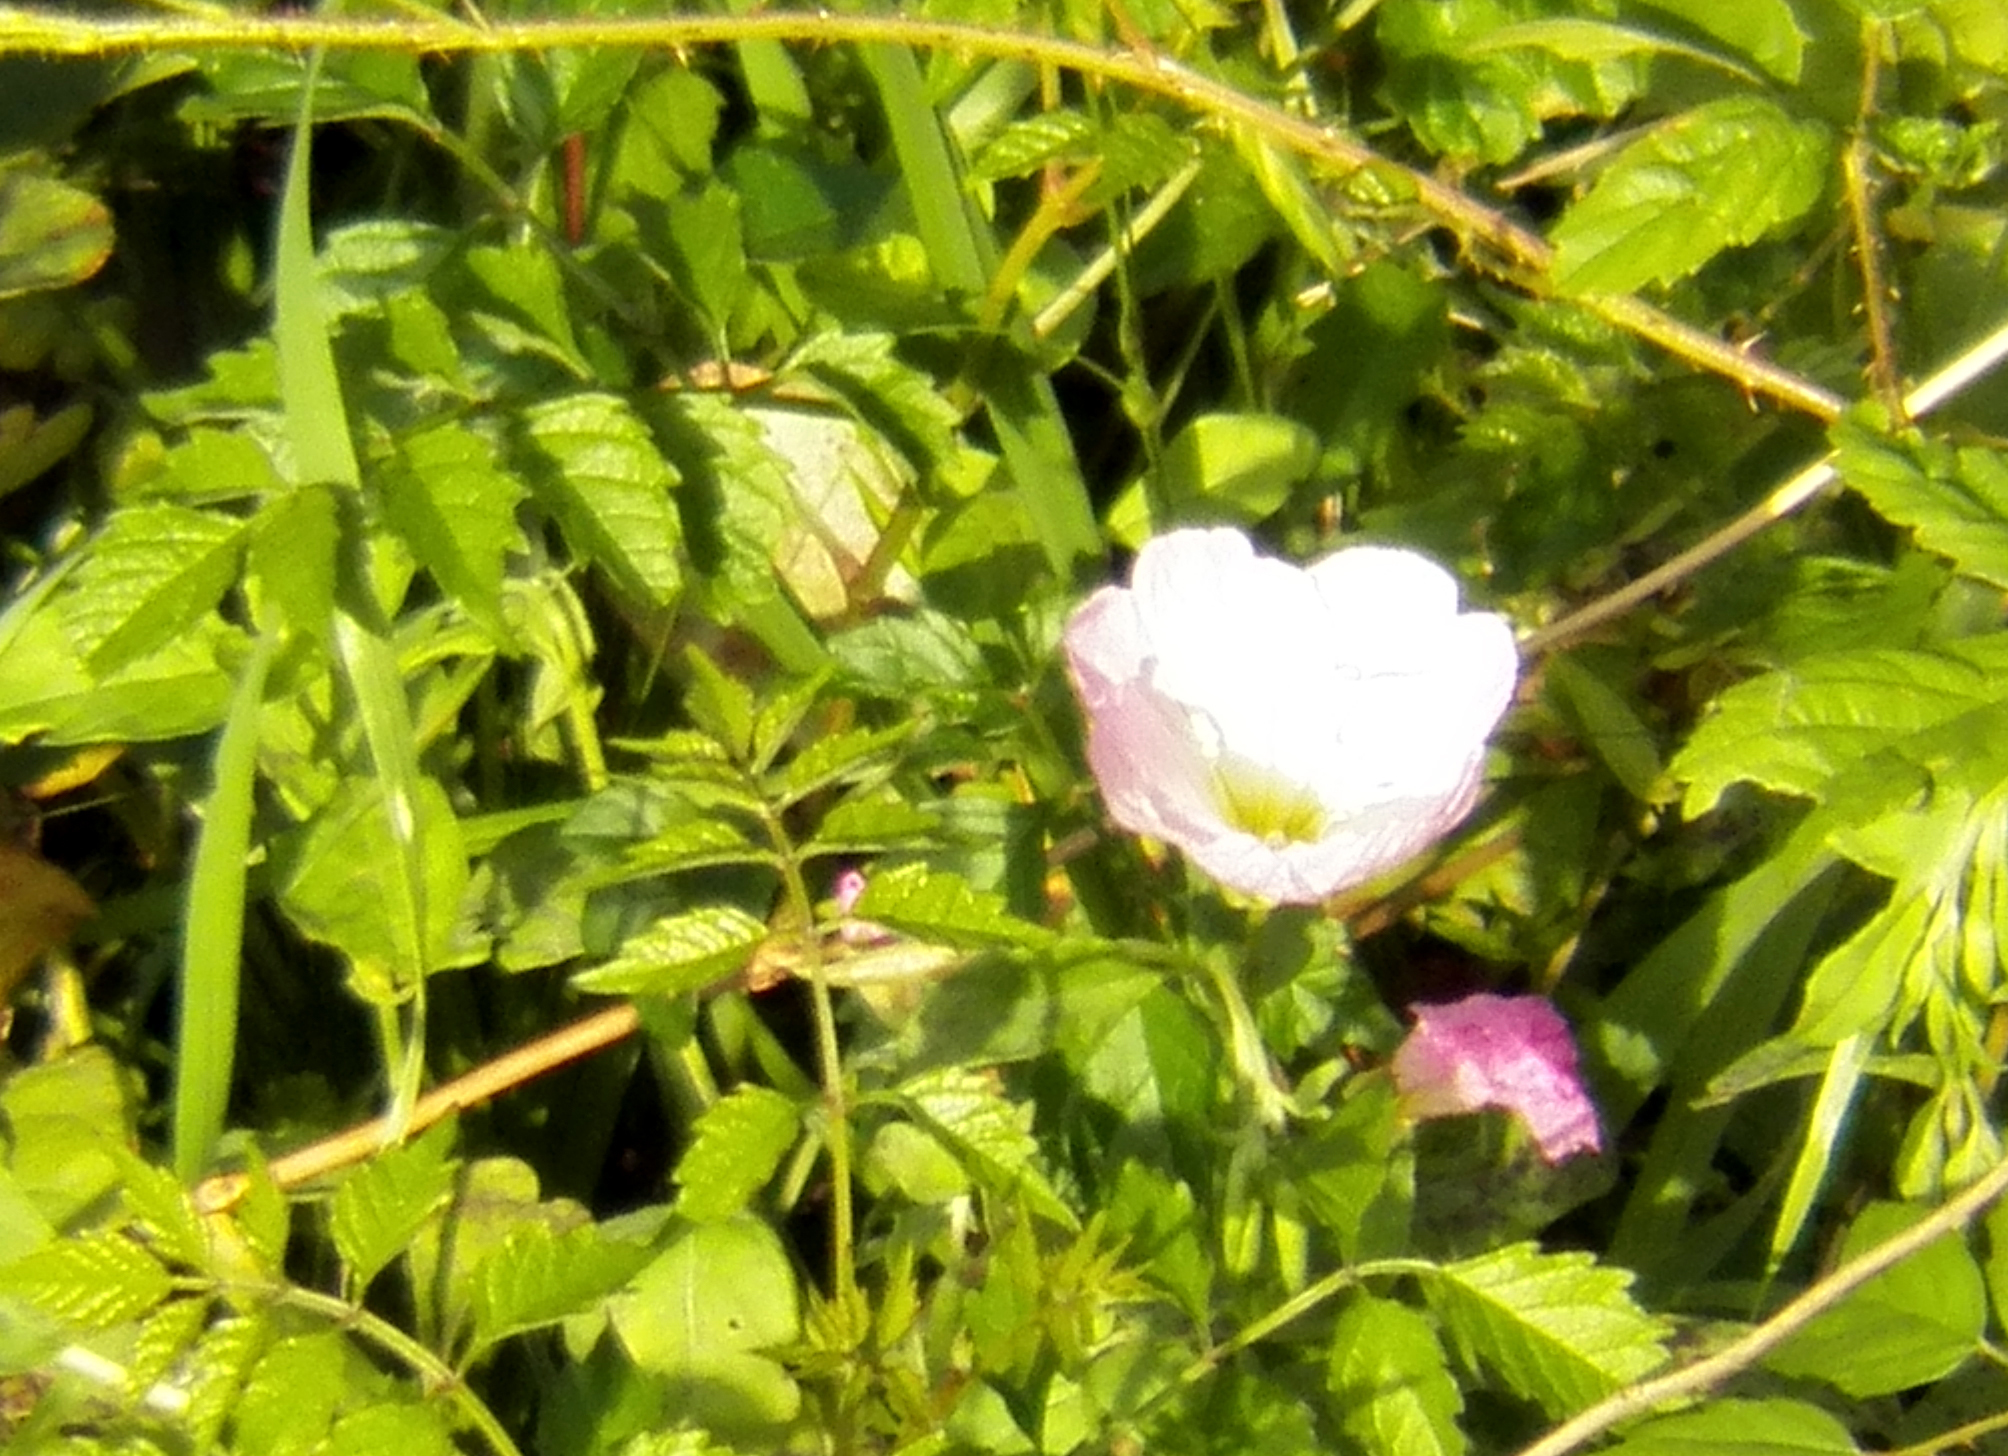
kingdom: Plantae
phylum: Tracheophyta
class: Magnoliopsida
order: Myrtales
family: Onagraceae
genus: Oenothera
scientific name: Oenothera speciosa
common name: White evening-primrose
